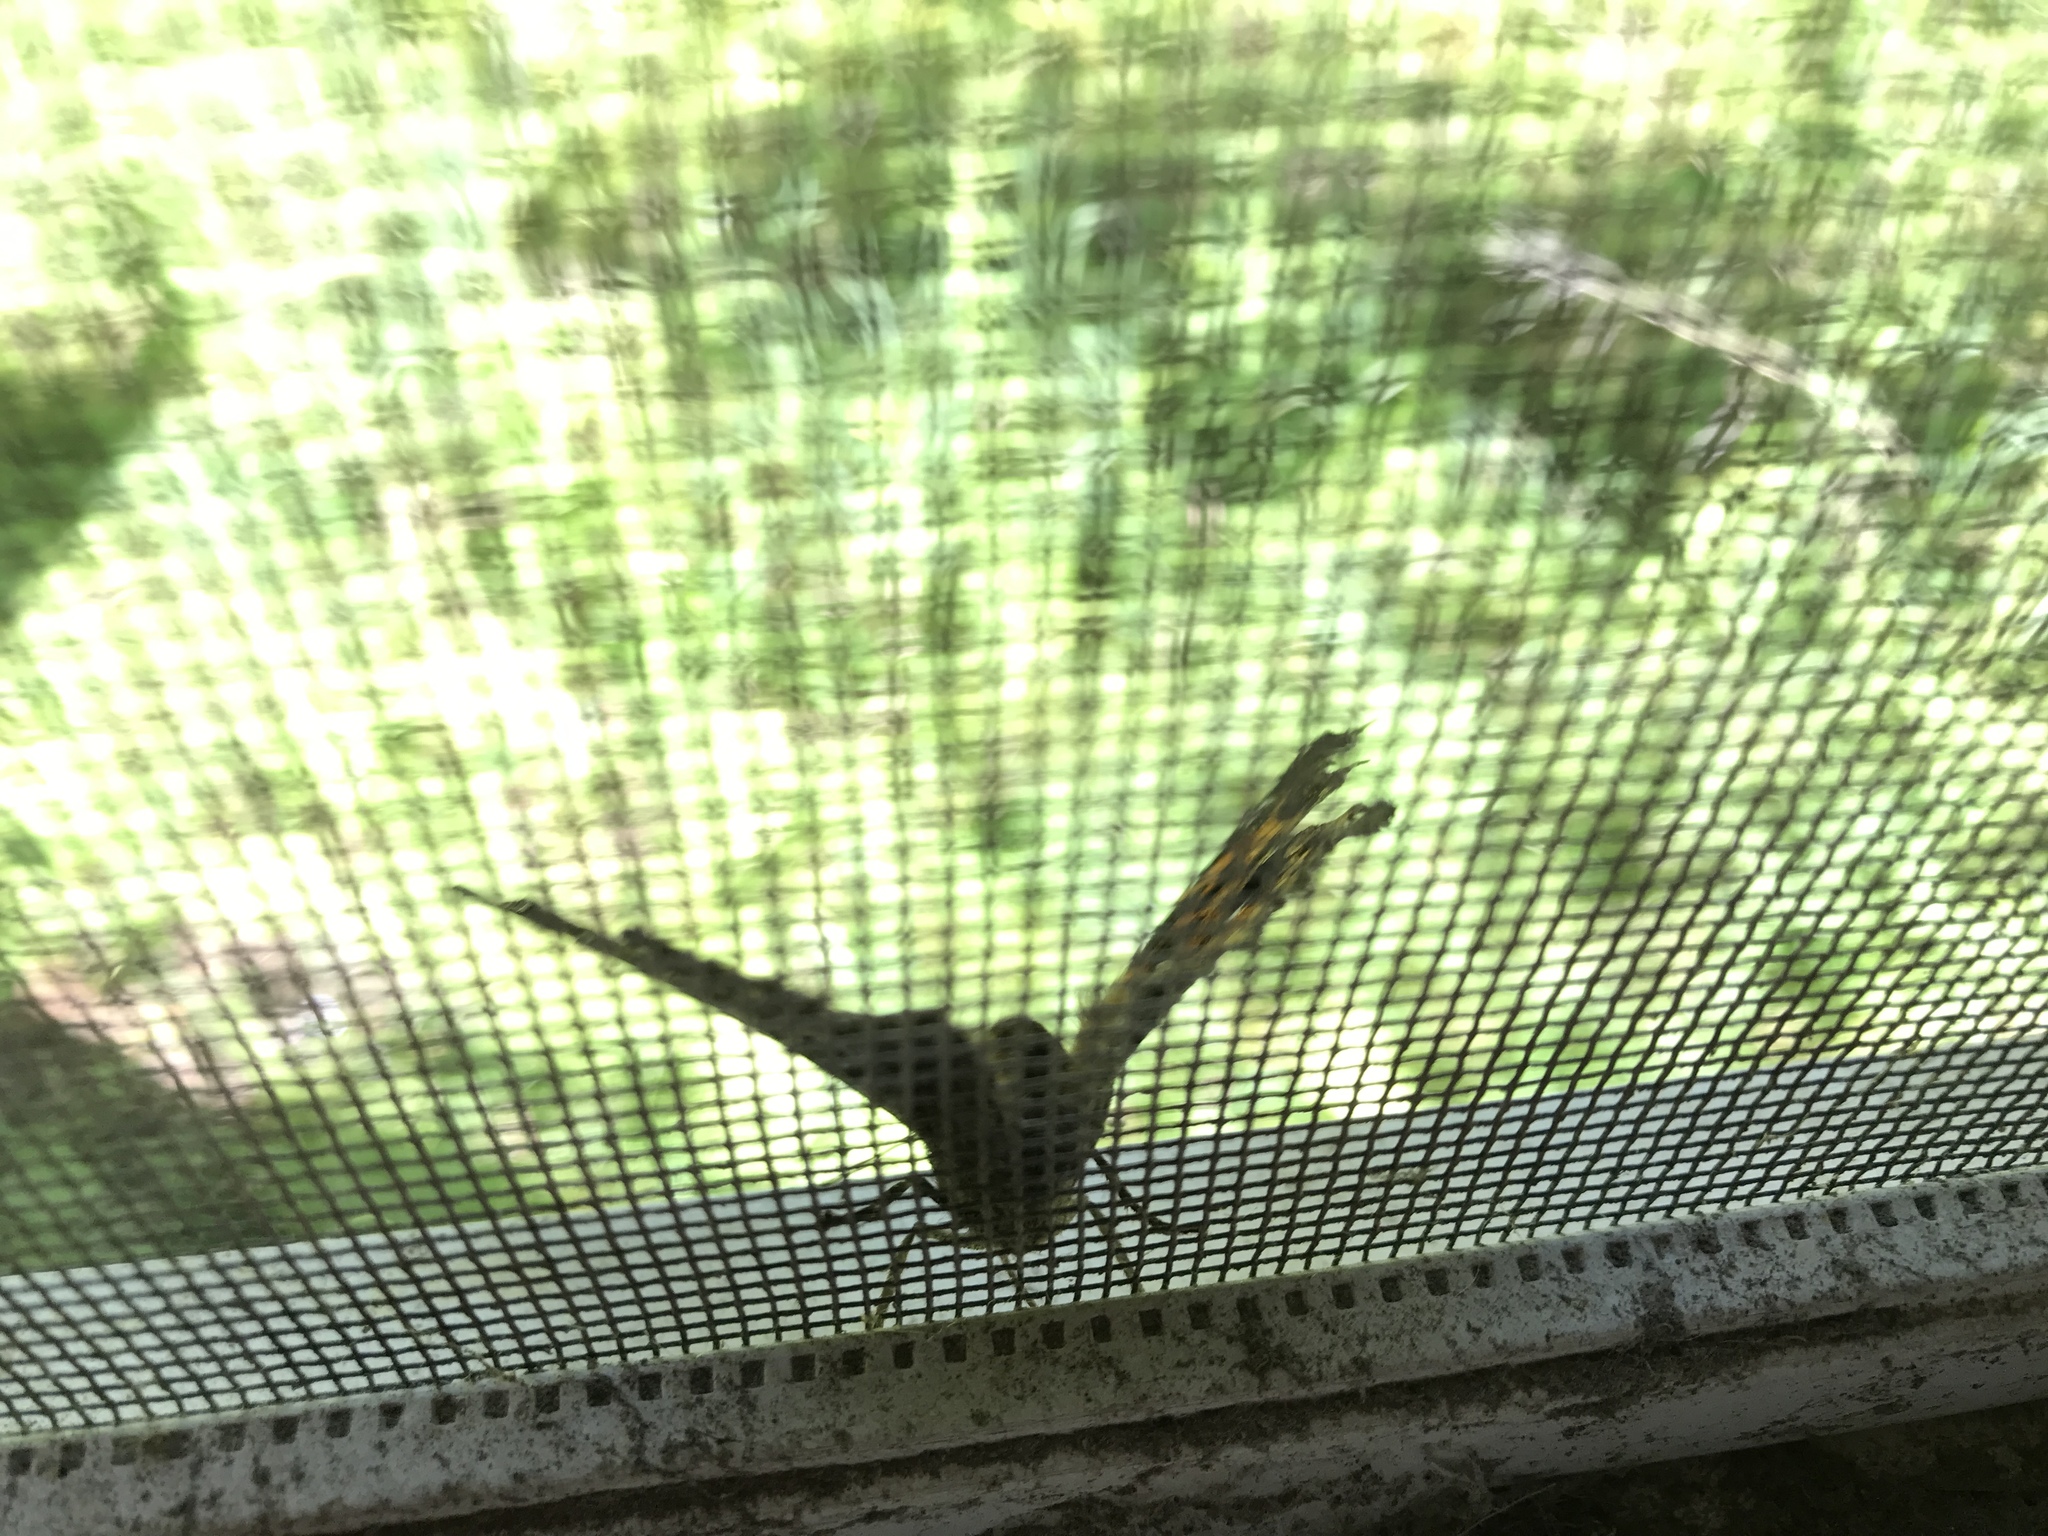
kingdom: Animalia
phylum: Arthropoda
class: Insecta
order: Lepidoptera
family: Nymphalidae
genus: Polygonia
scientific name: Polygonia vaualbum
